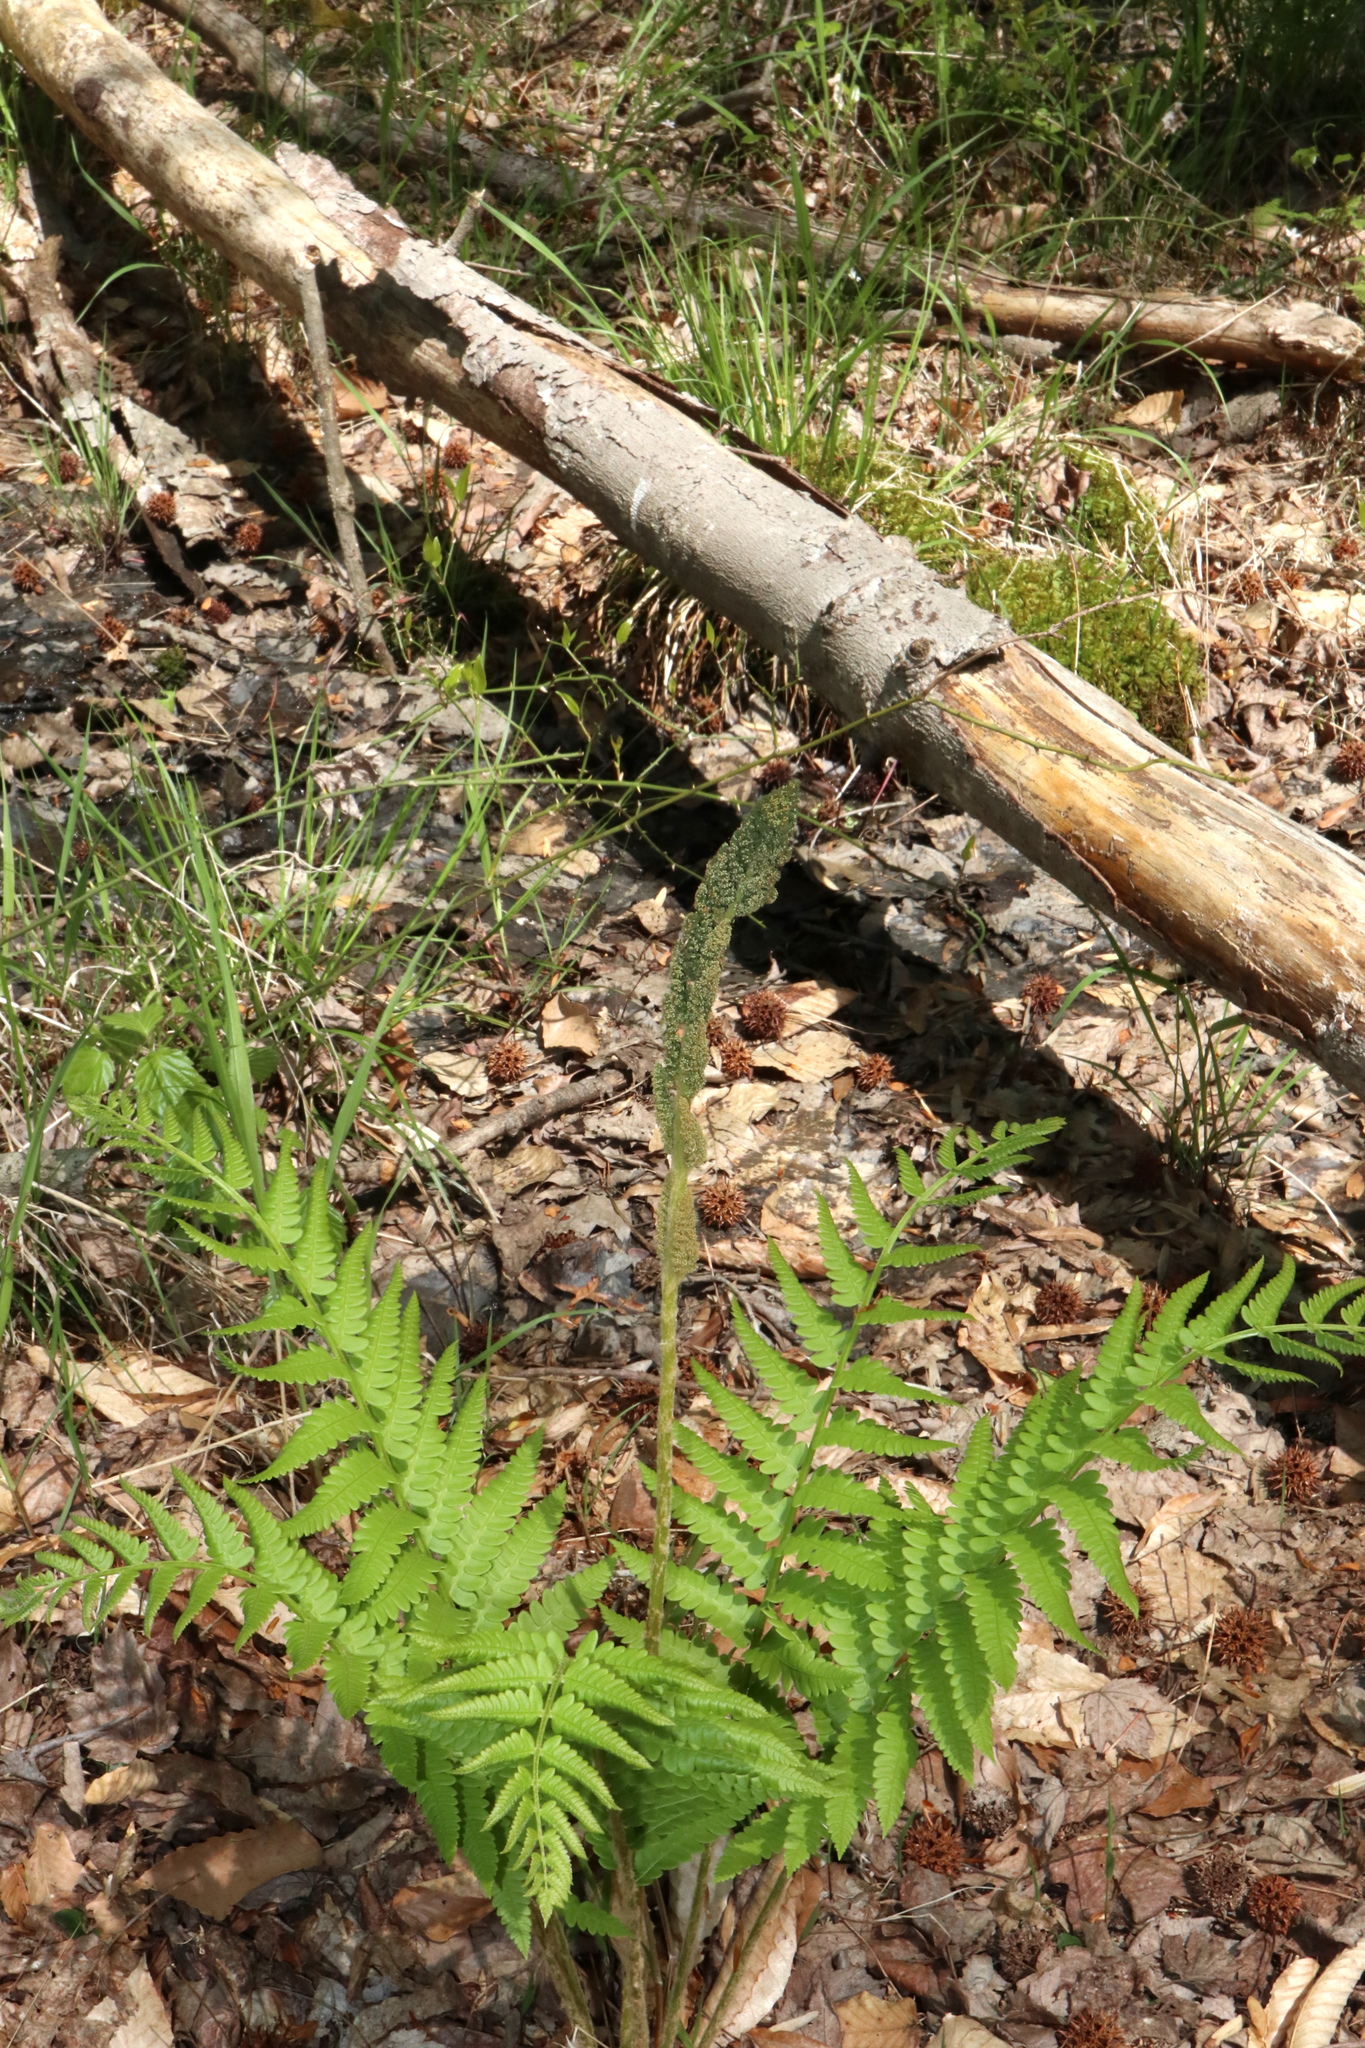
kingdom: Plantae
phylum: Tracheophyta
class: Polypodiopsida
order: Osmundales
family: Osmundaceae
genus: Osmundastrum
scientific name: Osmundastrum cinnamomeum
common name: Cinnamon fern
